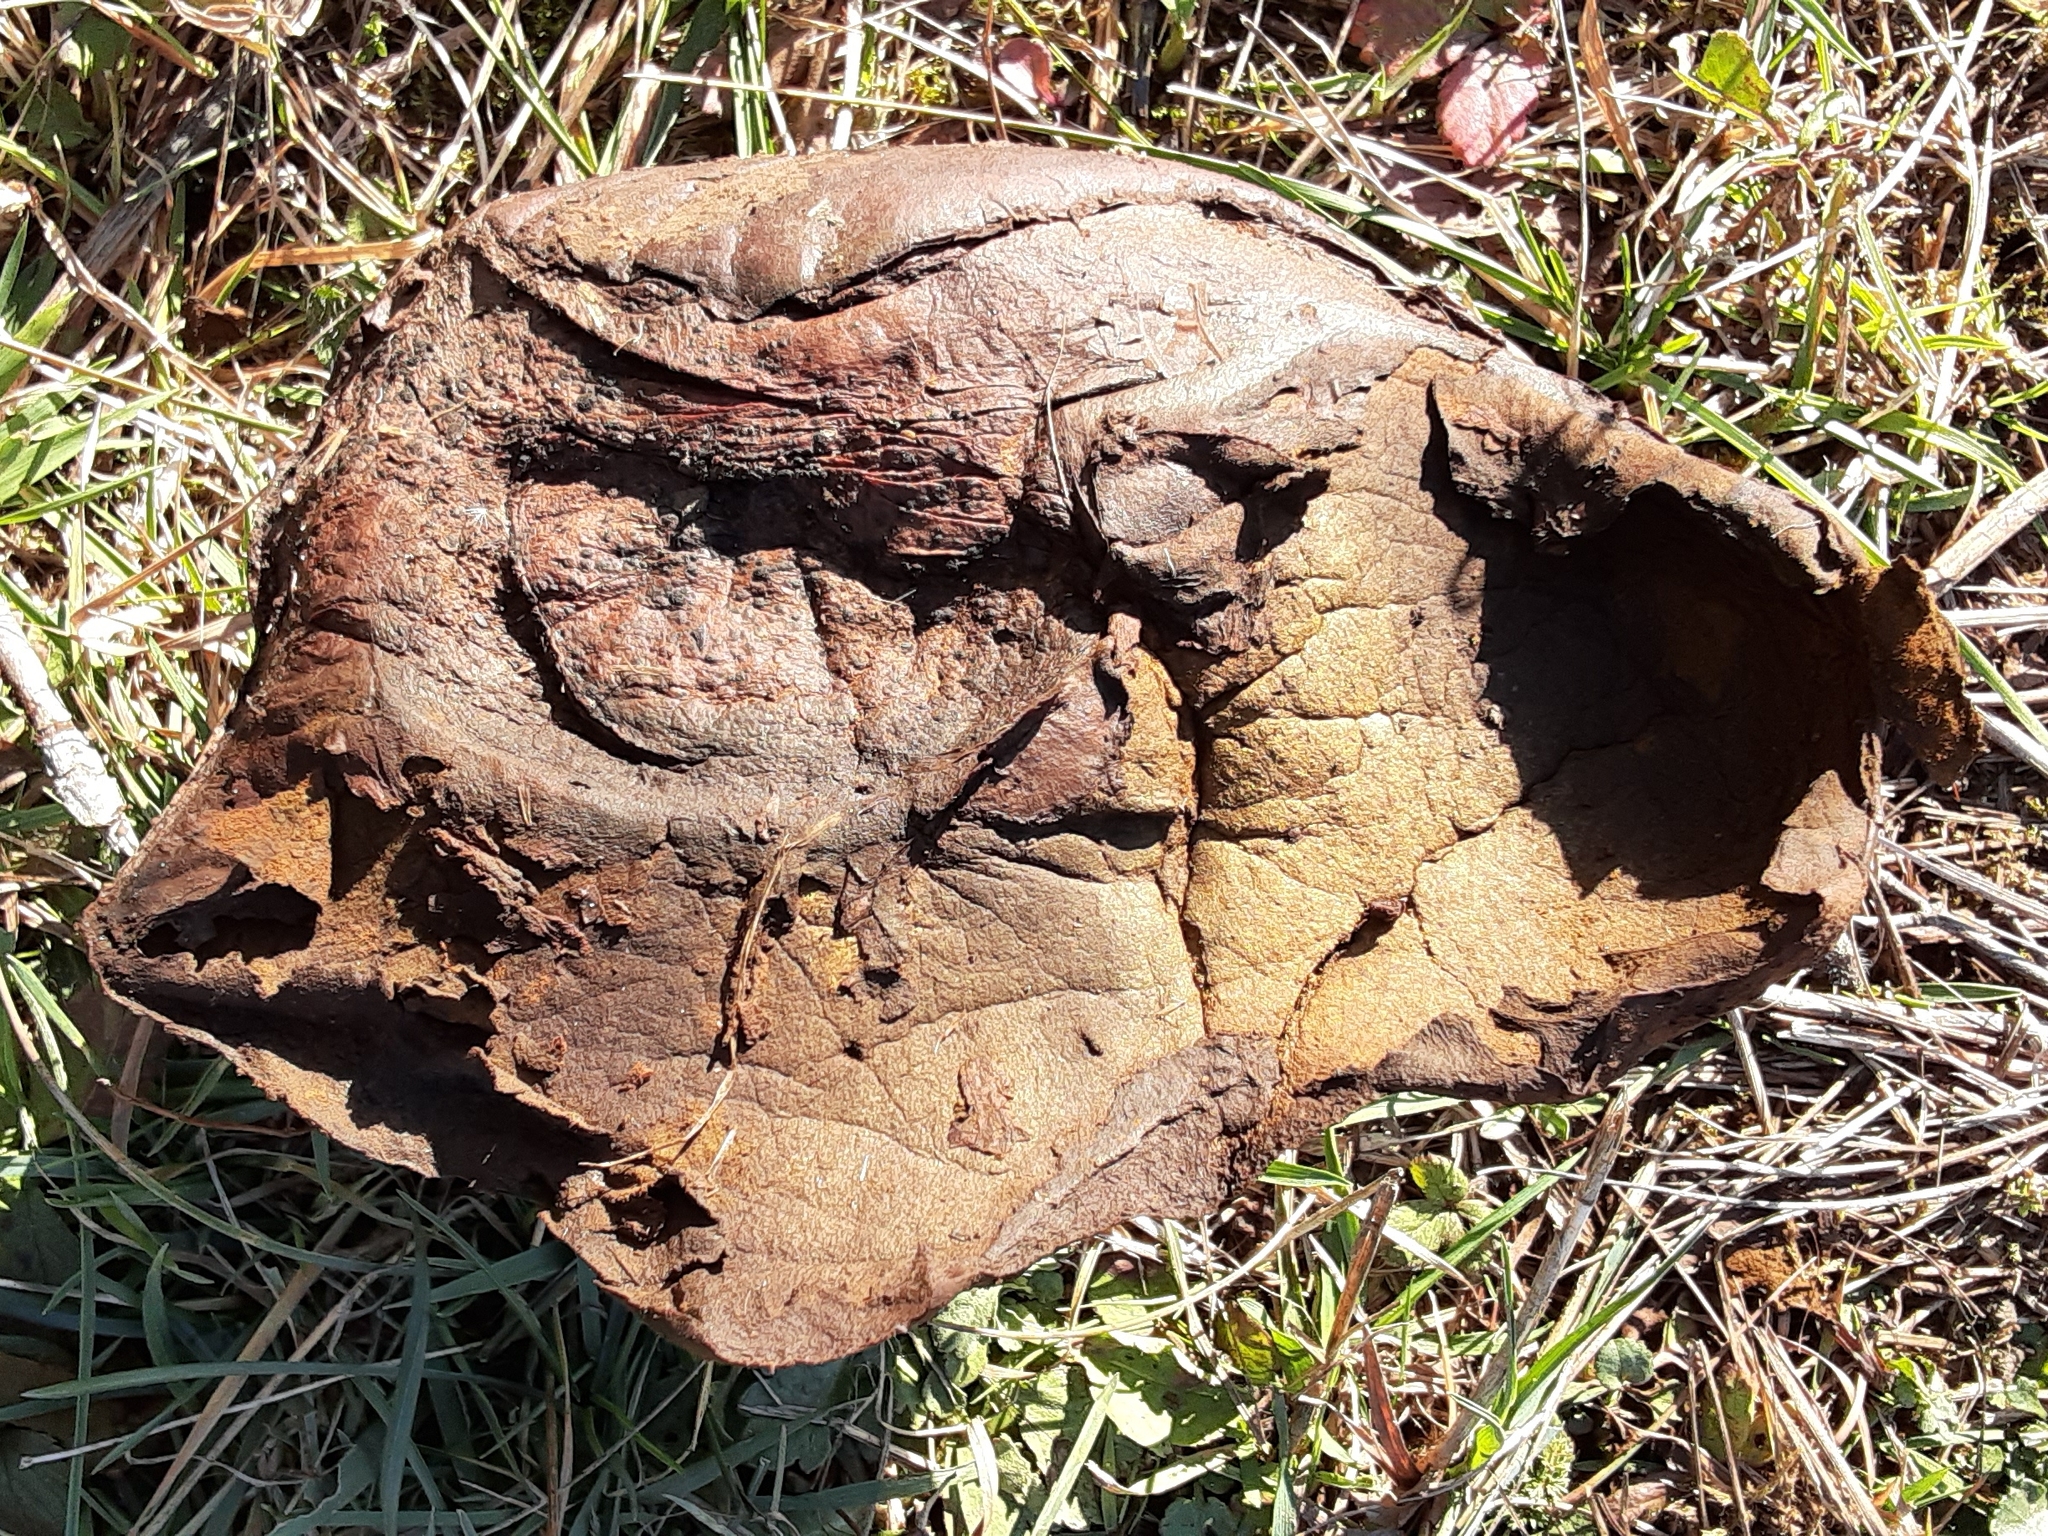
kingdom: Fungi
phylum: Basidiomycota
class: Agaricomycetes
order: Agaricales
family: Lycoperdaceae
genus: Calvatia
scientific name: Calvatia cyathiformis
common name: Purple-spored puffball
